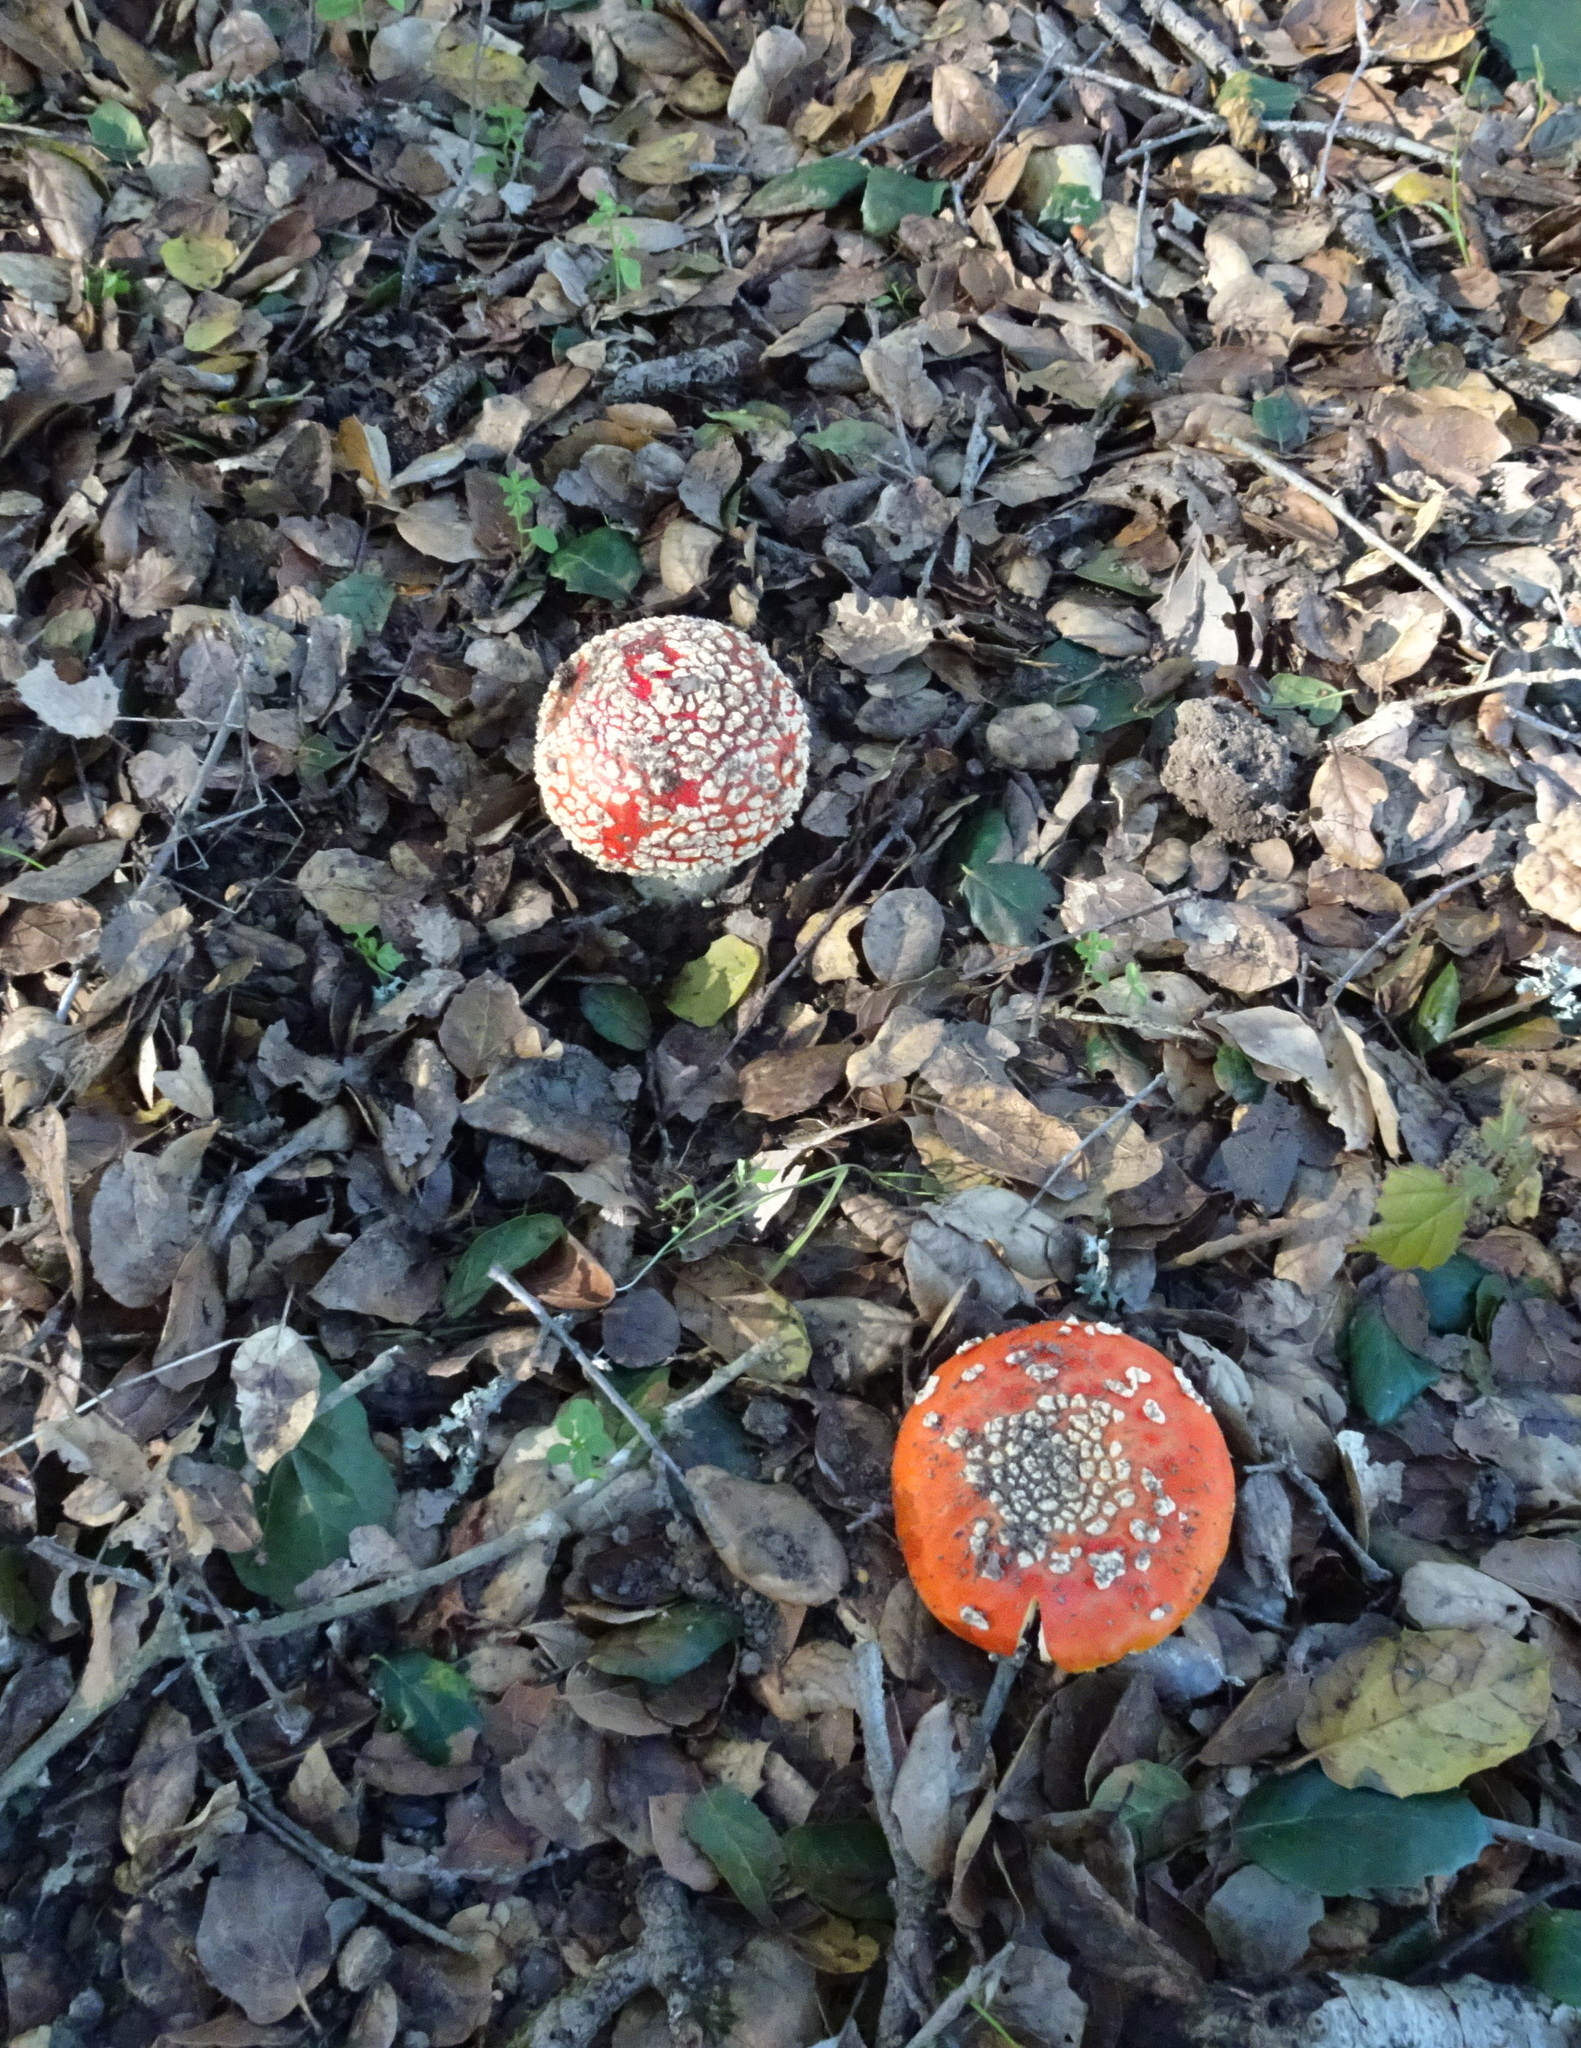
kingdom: Fungi
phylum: Basidiomycota
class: Agaricomycetes
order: Agaricales
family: Amanitaceae
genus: Amanita
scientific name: Amanita muscaria
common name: Fly agaric
